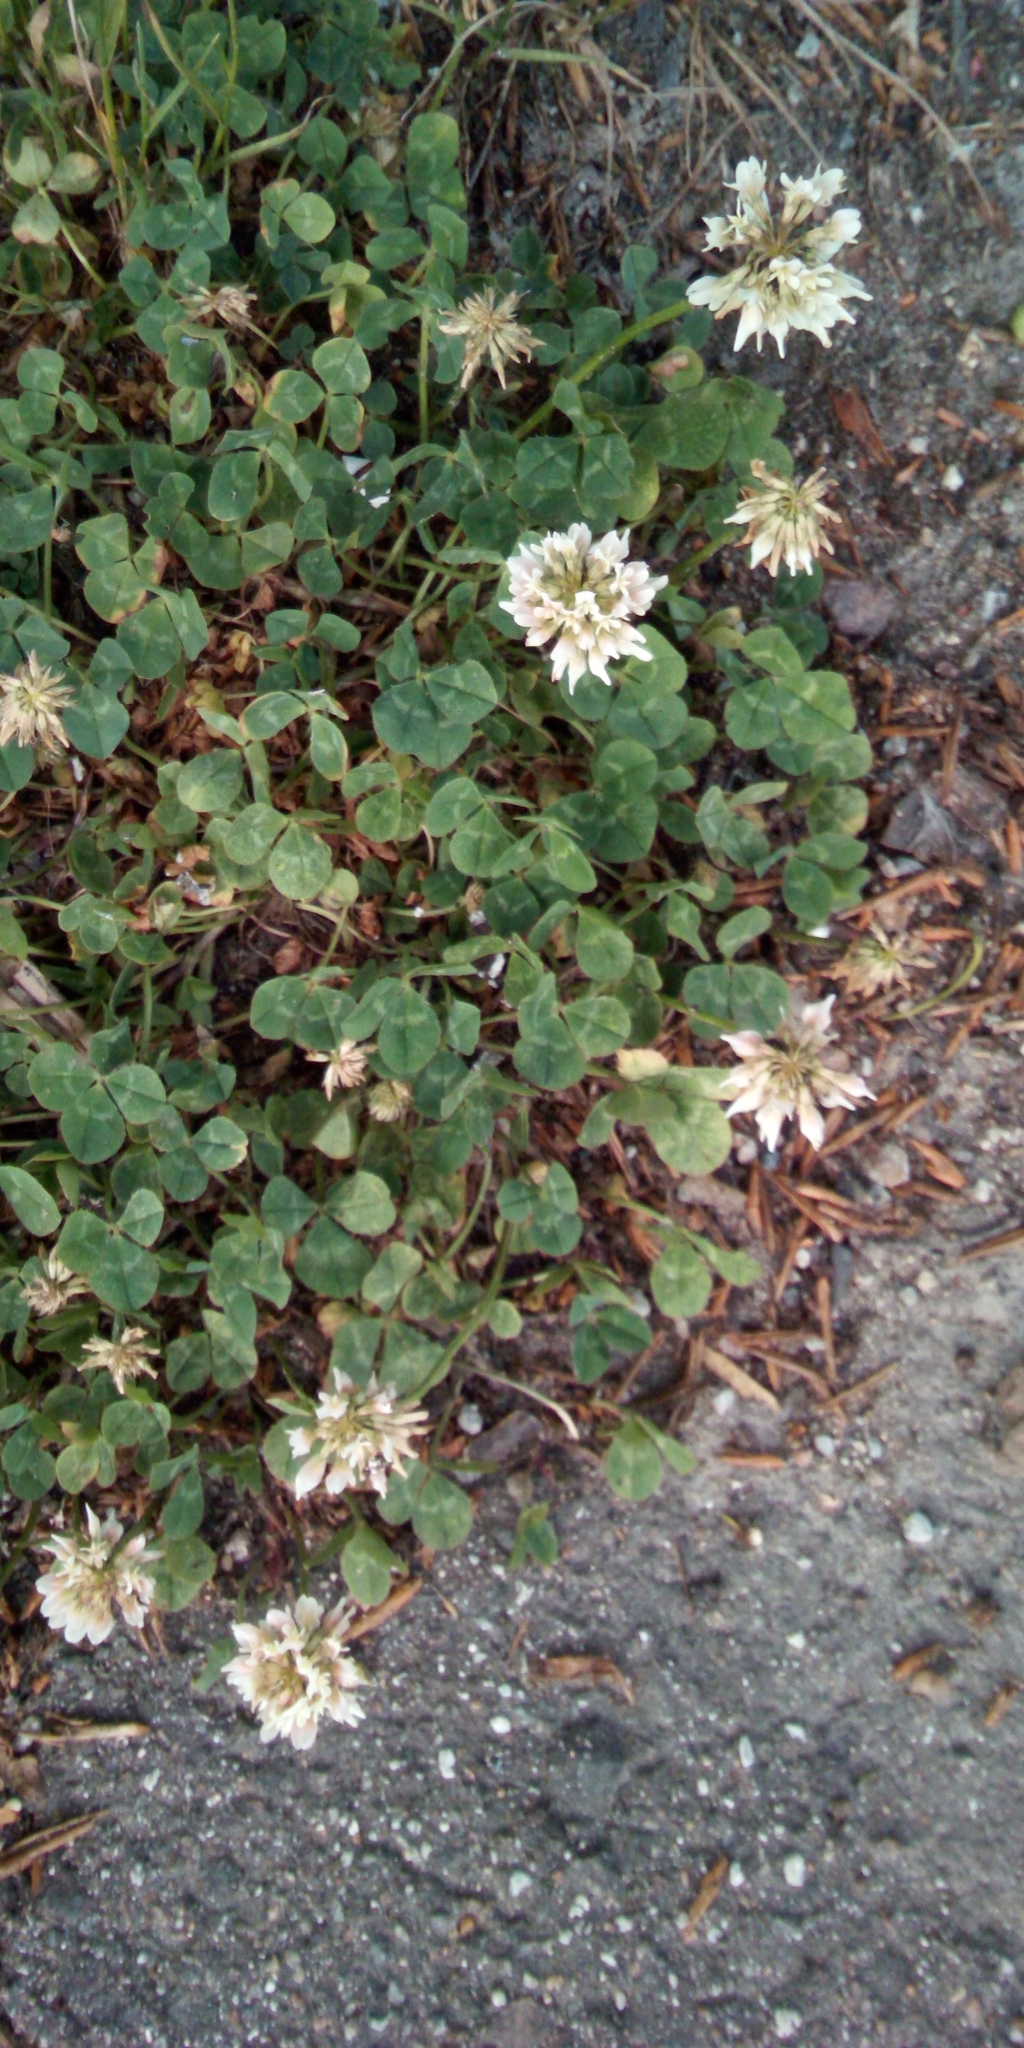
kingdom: Plantae
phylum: Tracheophyta
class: Magnoliopsida
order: Fabales
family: Fabaceae
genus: Trifolium
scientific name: Trifolium repens
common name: White clover
